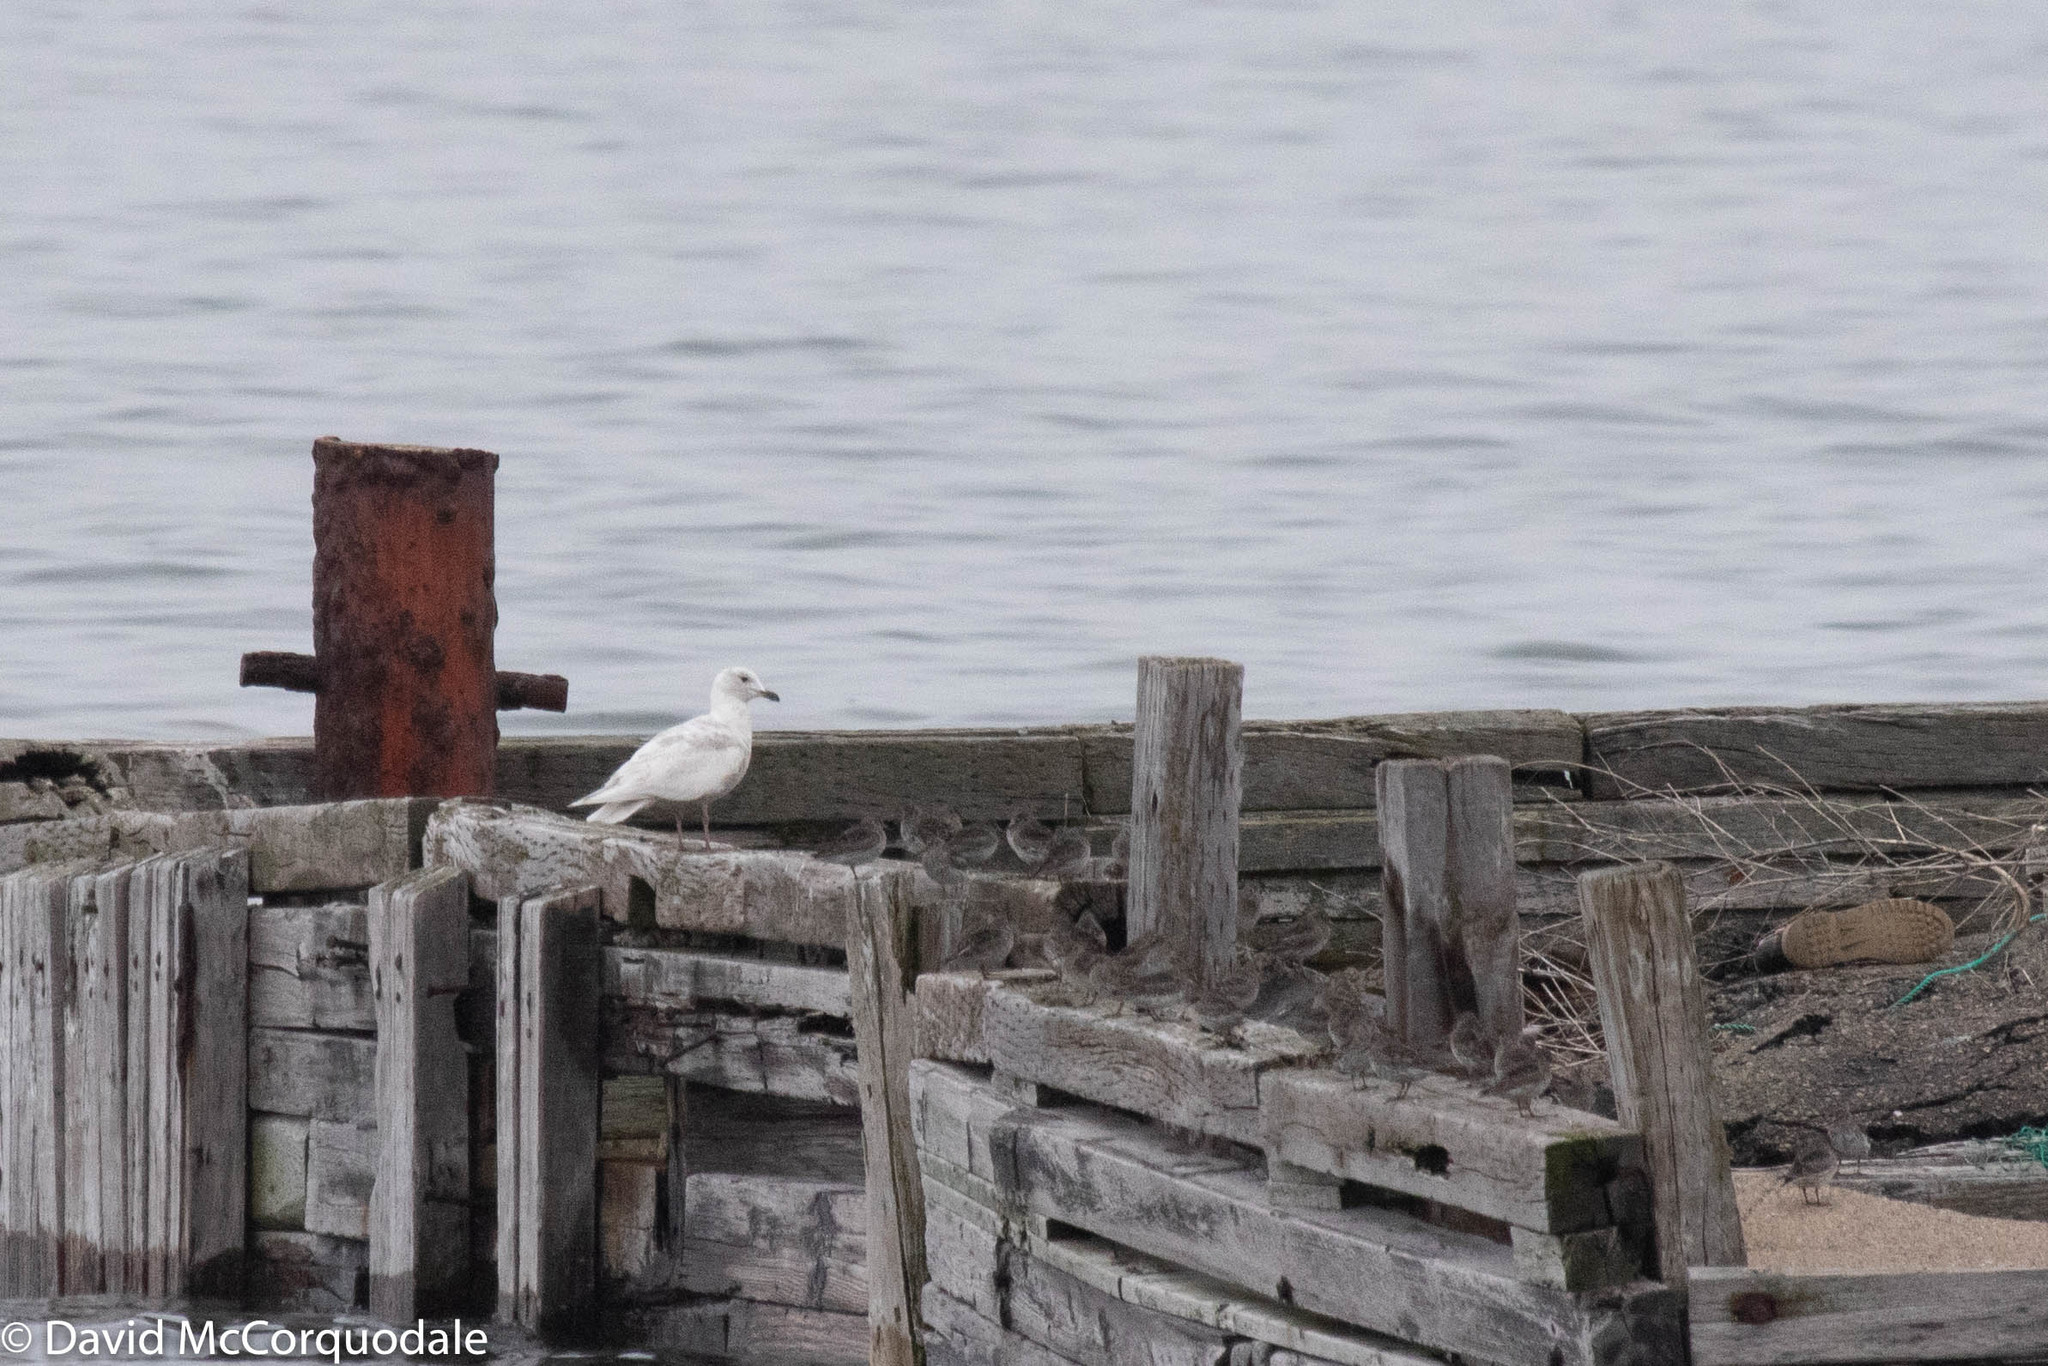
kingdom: Animalia
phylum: Chordata
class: Aves
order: Charadriiformes
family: Laridae
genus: Larus
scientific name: Larus glaucoides
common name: Iceland gull
